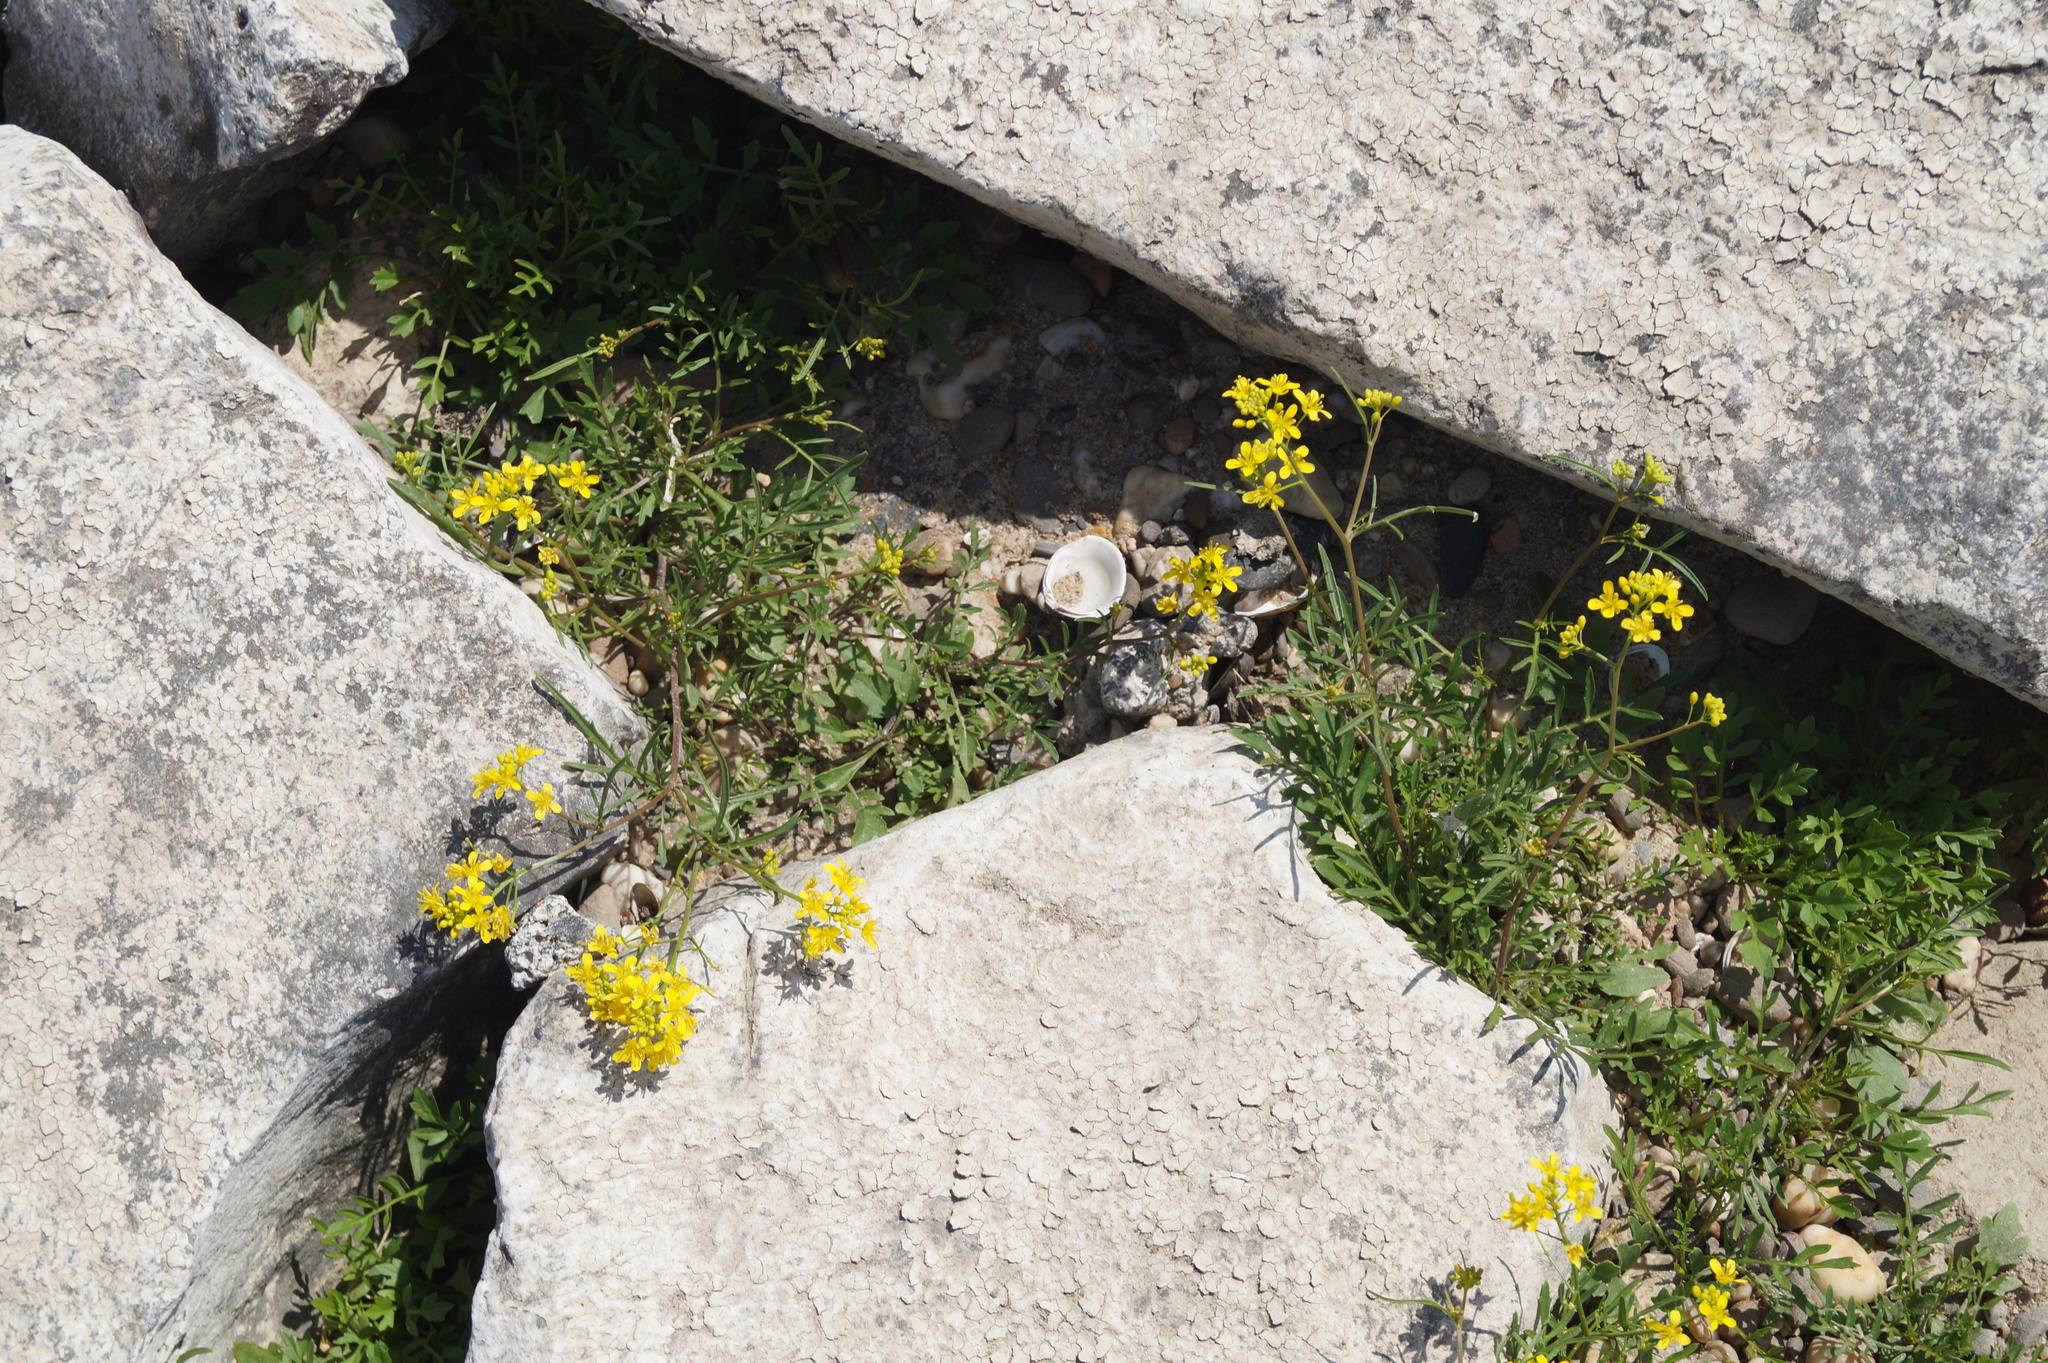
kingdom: Plantae
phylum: Tracheophyta
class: Magnoliopsida
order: Brassicales
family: Brassicaceae
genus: Rorippa
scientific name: Rorippa sylvestris
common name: Creeping yellowcress
